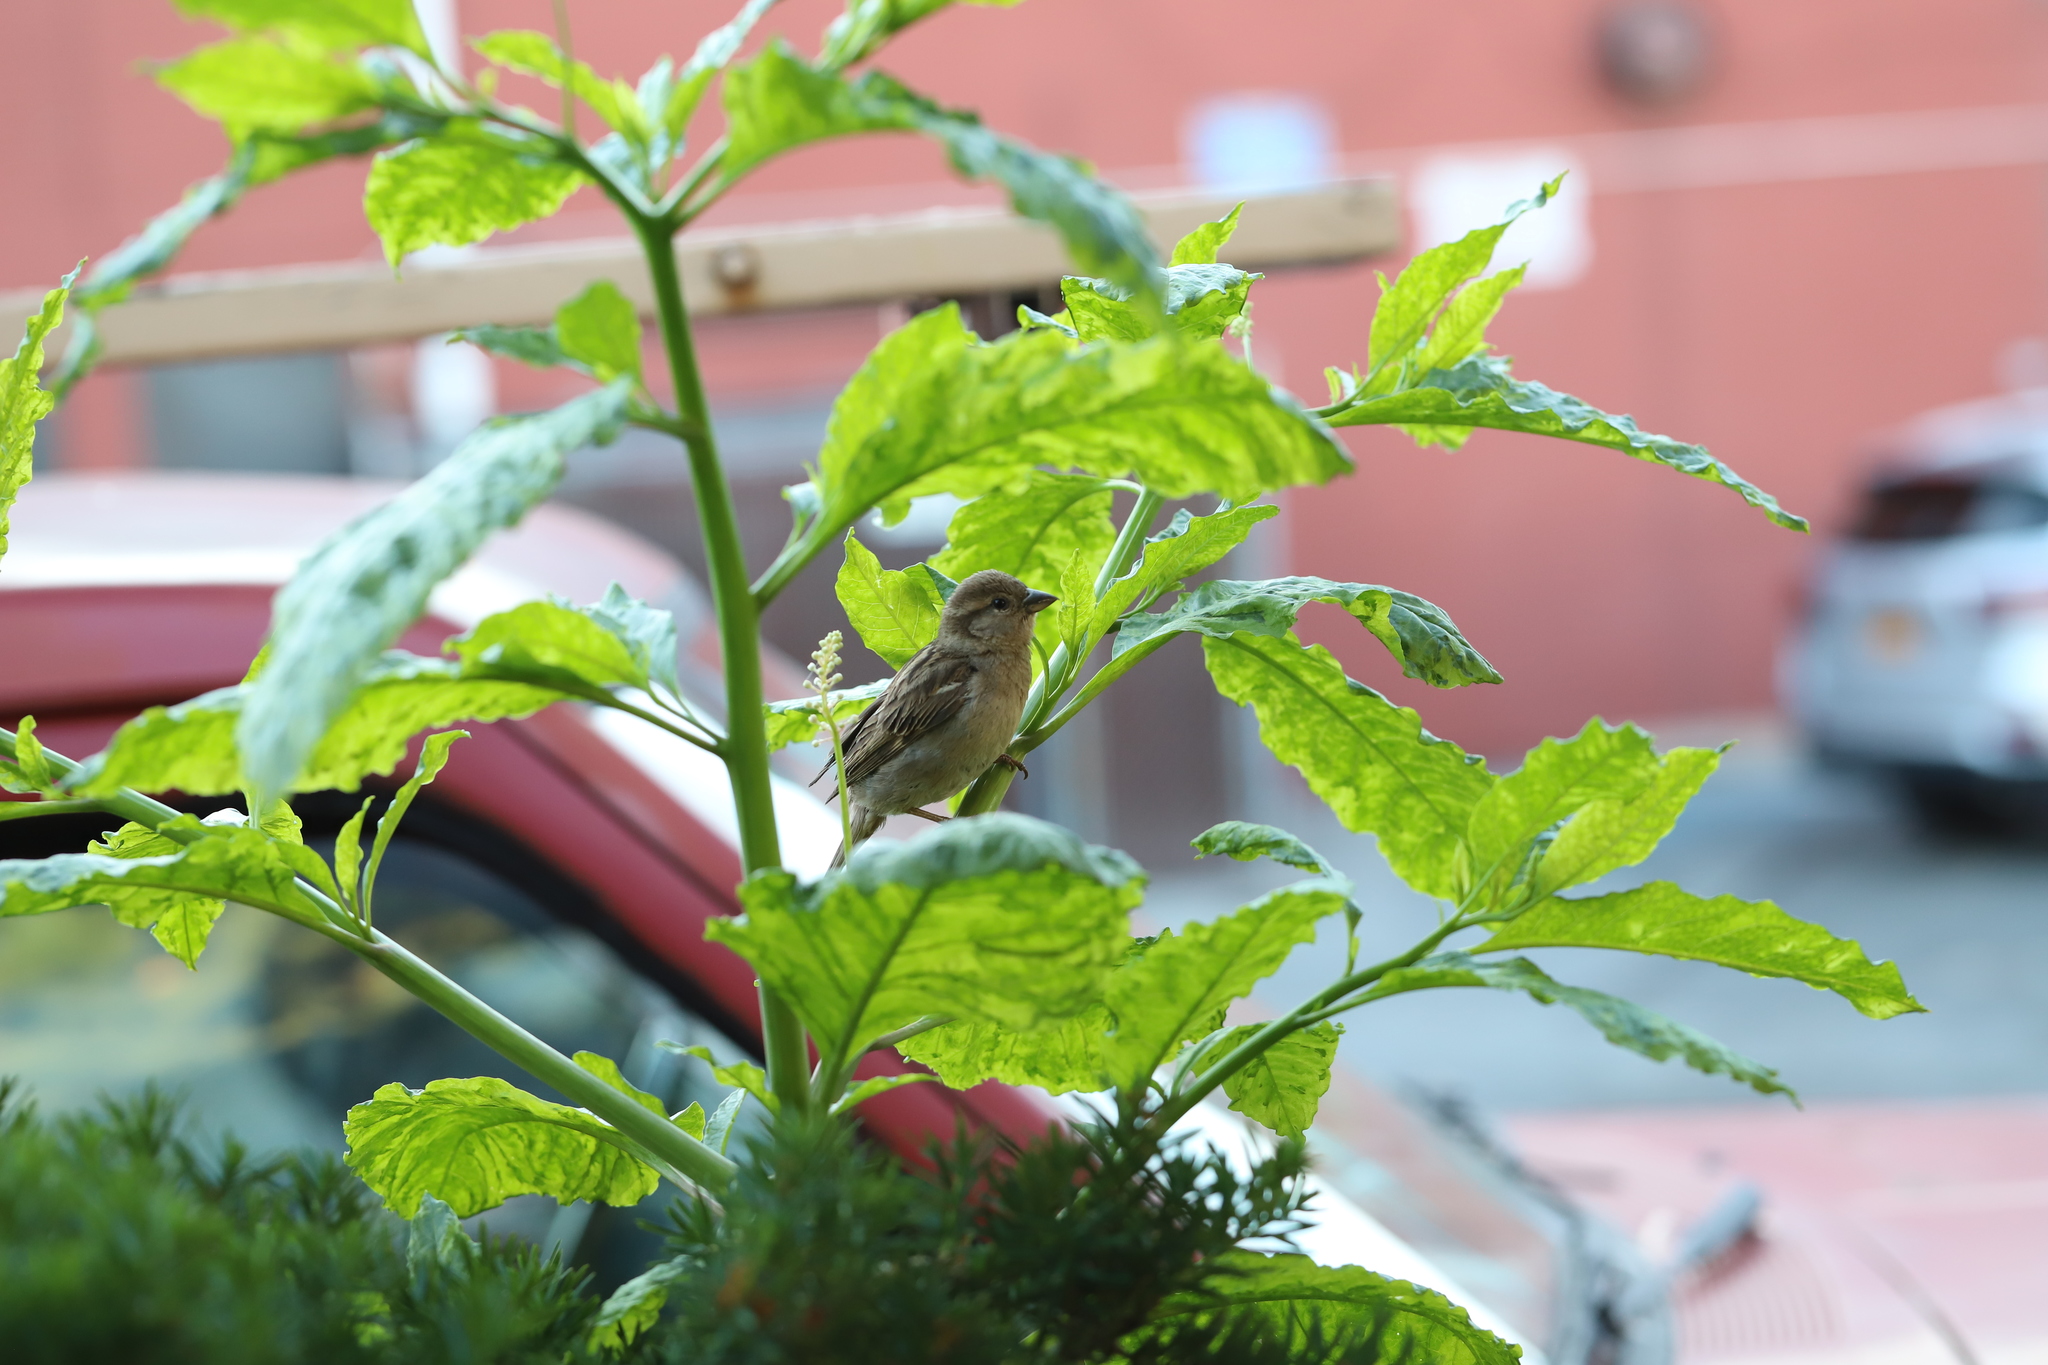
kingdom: Animalia
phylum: Chordata
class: Aves
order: Passeriformes
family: Passeridae
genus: Passer
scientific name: Passer domesticus
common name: House sparrow
